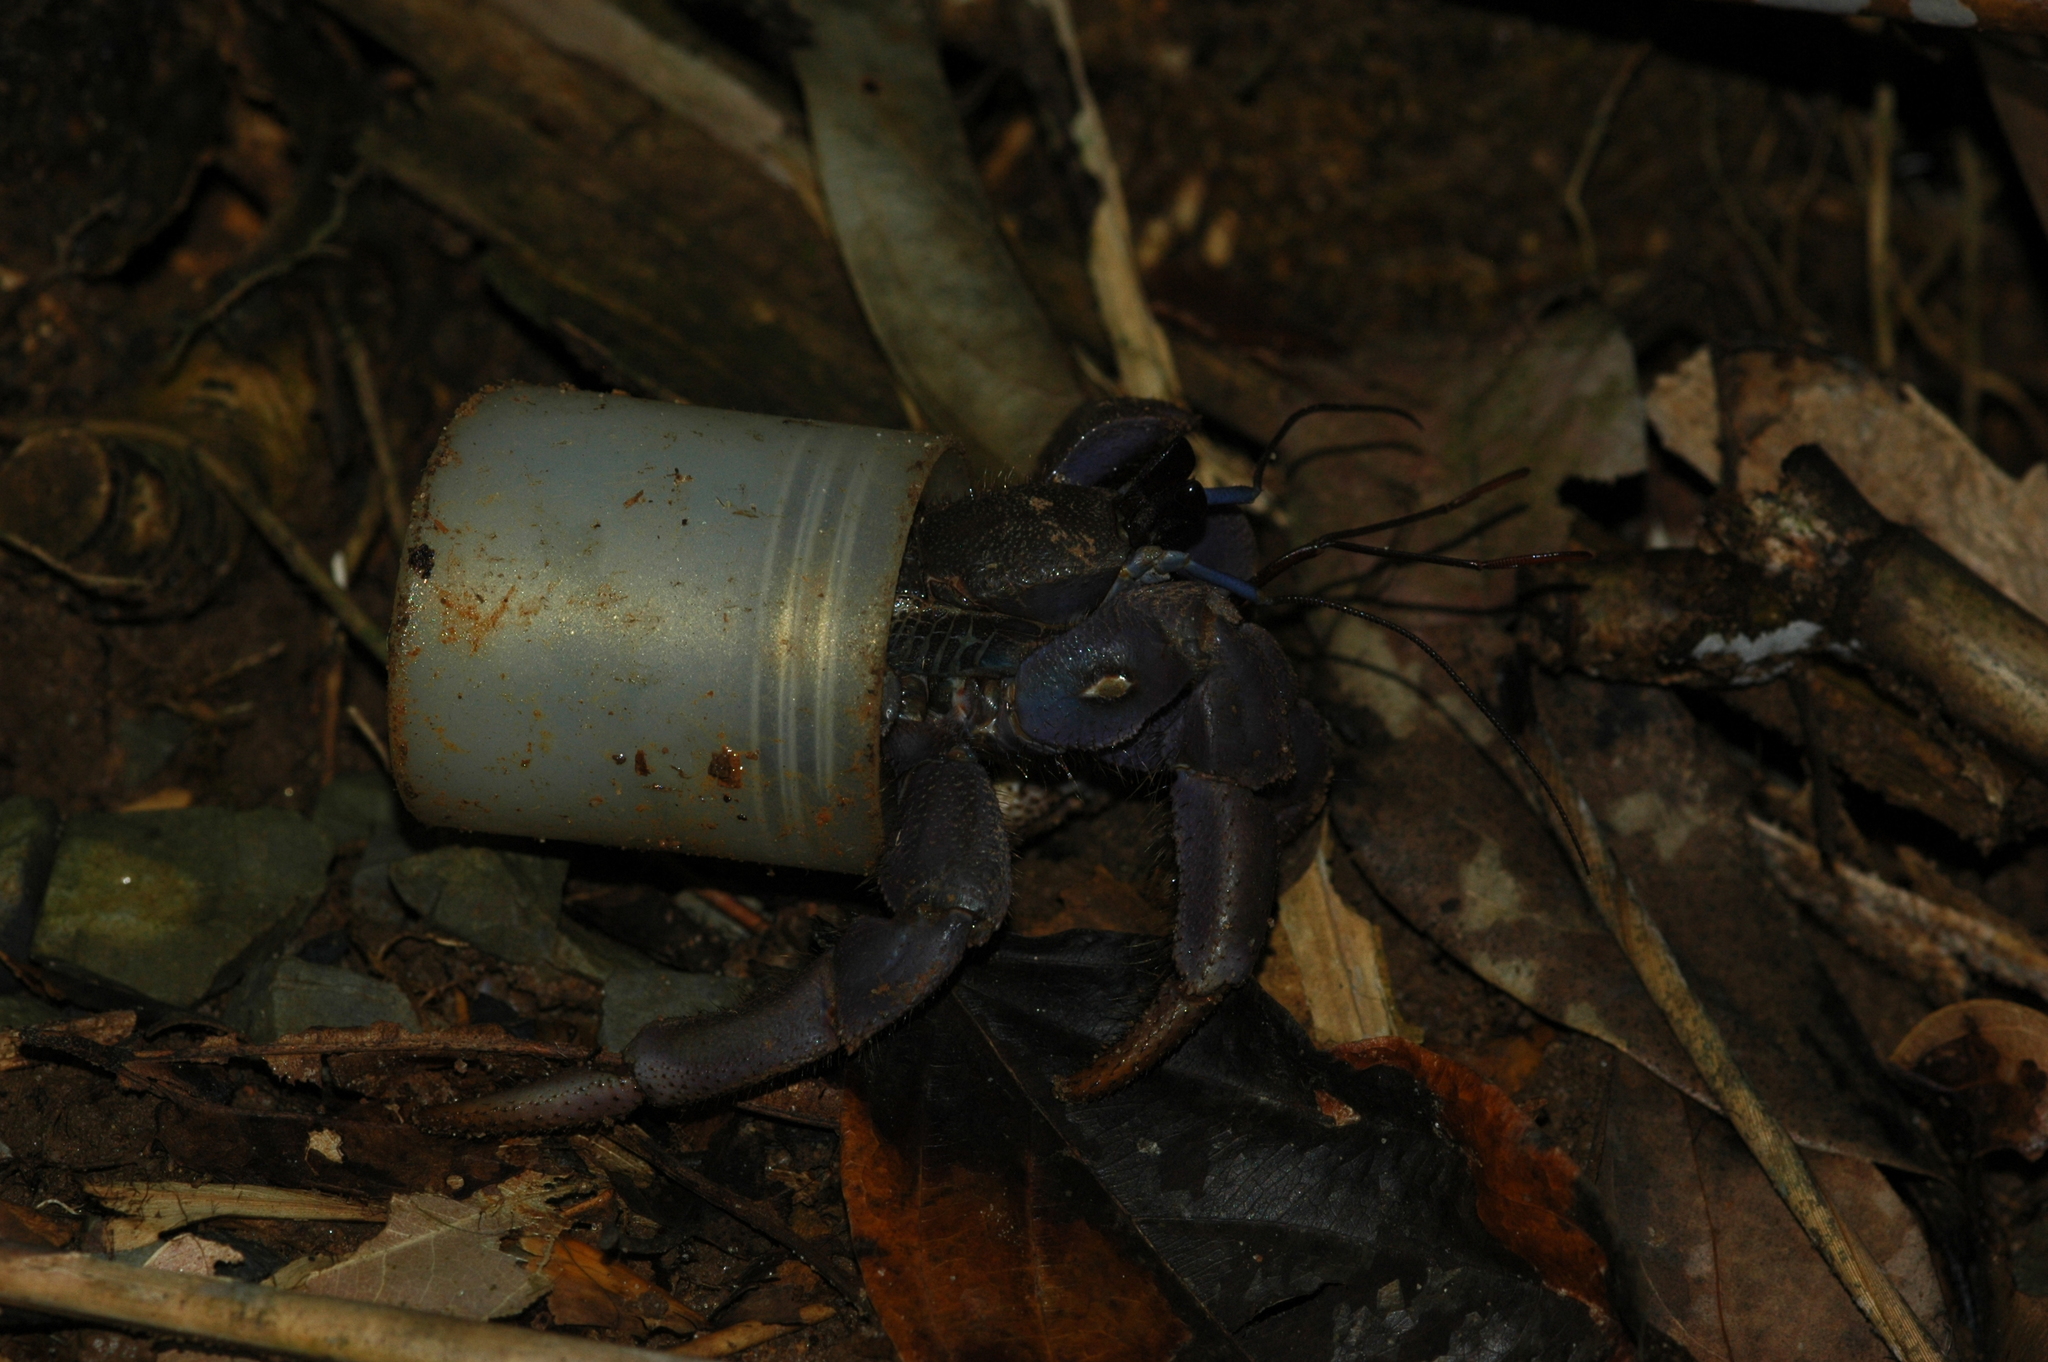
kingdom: Animalia
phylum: Arthropoda
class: Malacostraca
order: Decapoda
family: Coenobitidae
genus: Coenobita
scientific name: Coenobita violascens
